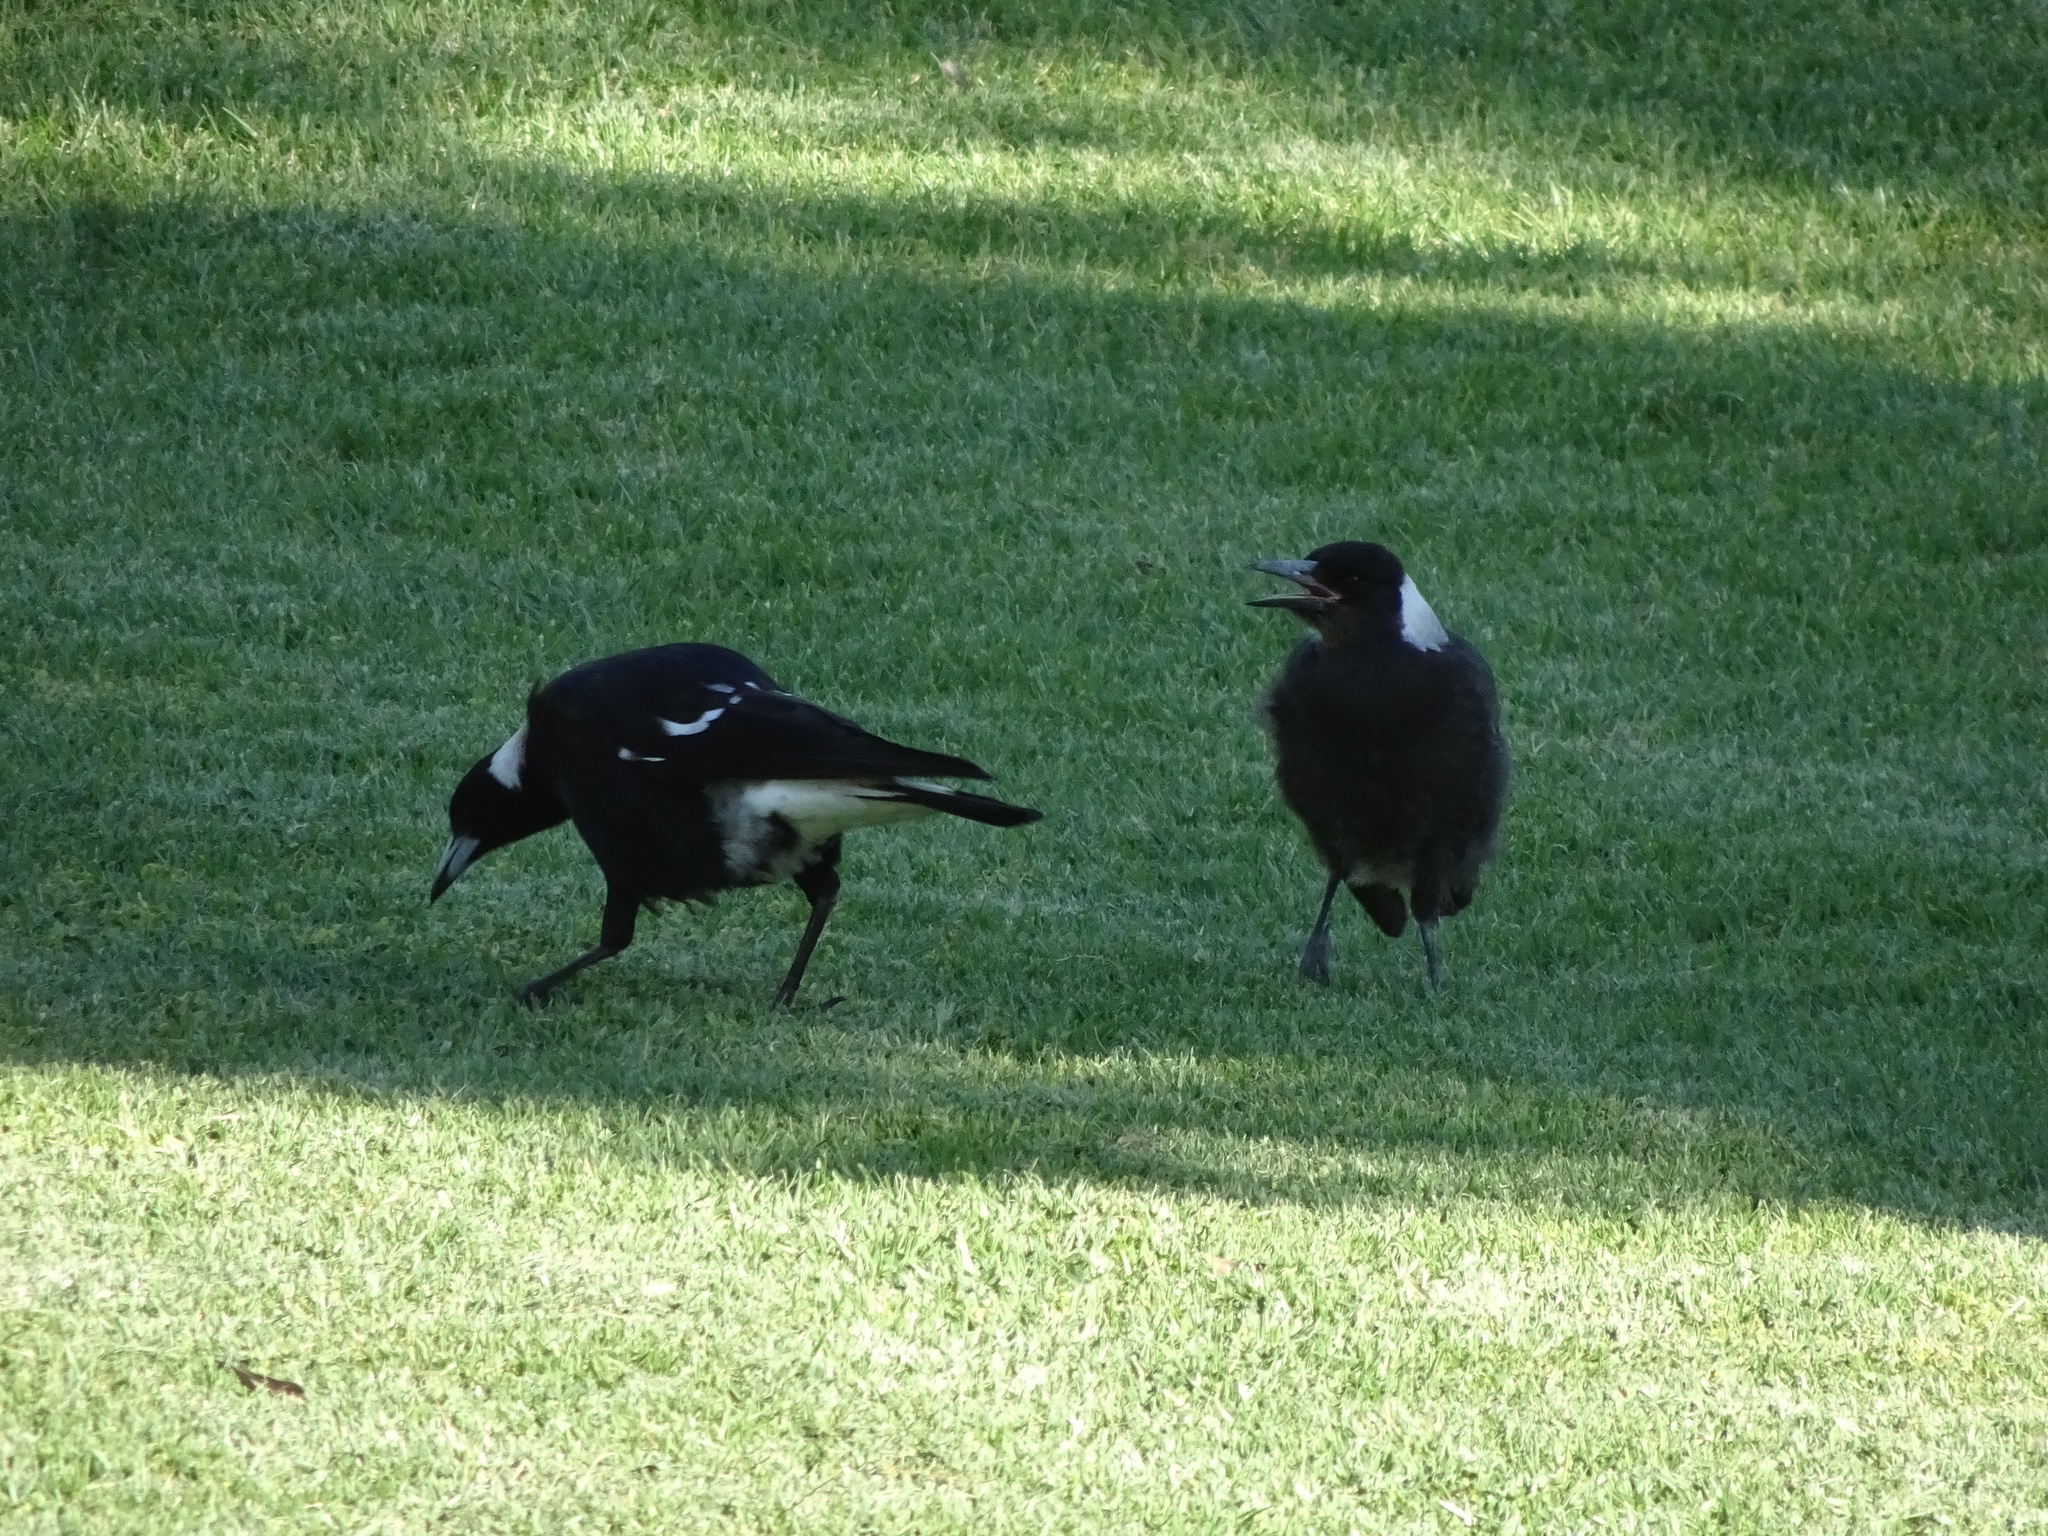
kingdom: Animalia
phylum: Chordata
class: Aves
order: Passeriformes
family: Cracticidae
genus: Gymnorhina
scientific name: Gymnorhina tibicen
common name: Australian magpie
